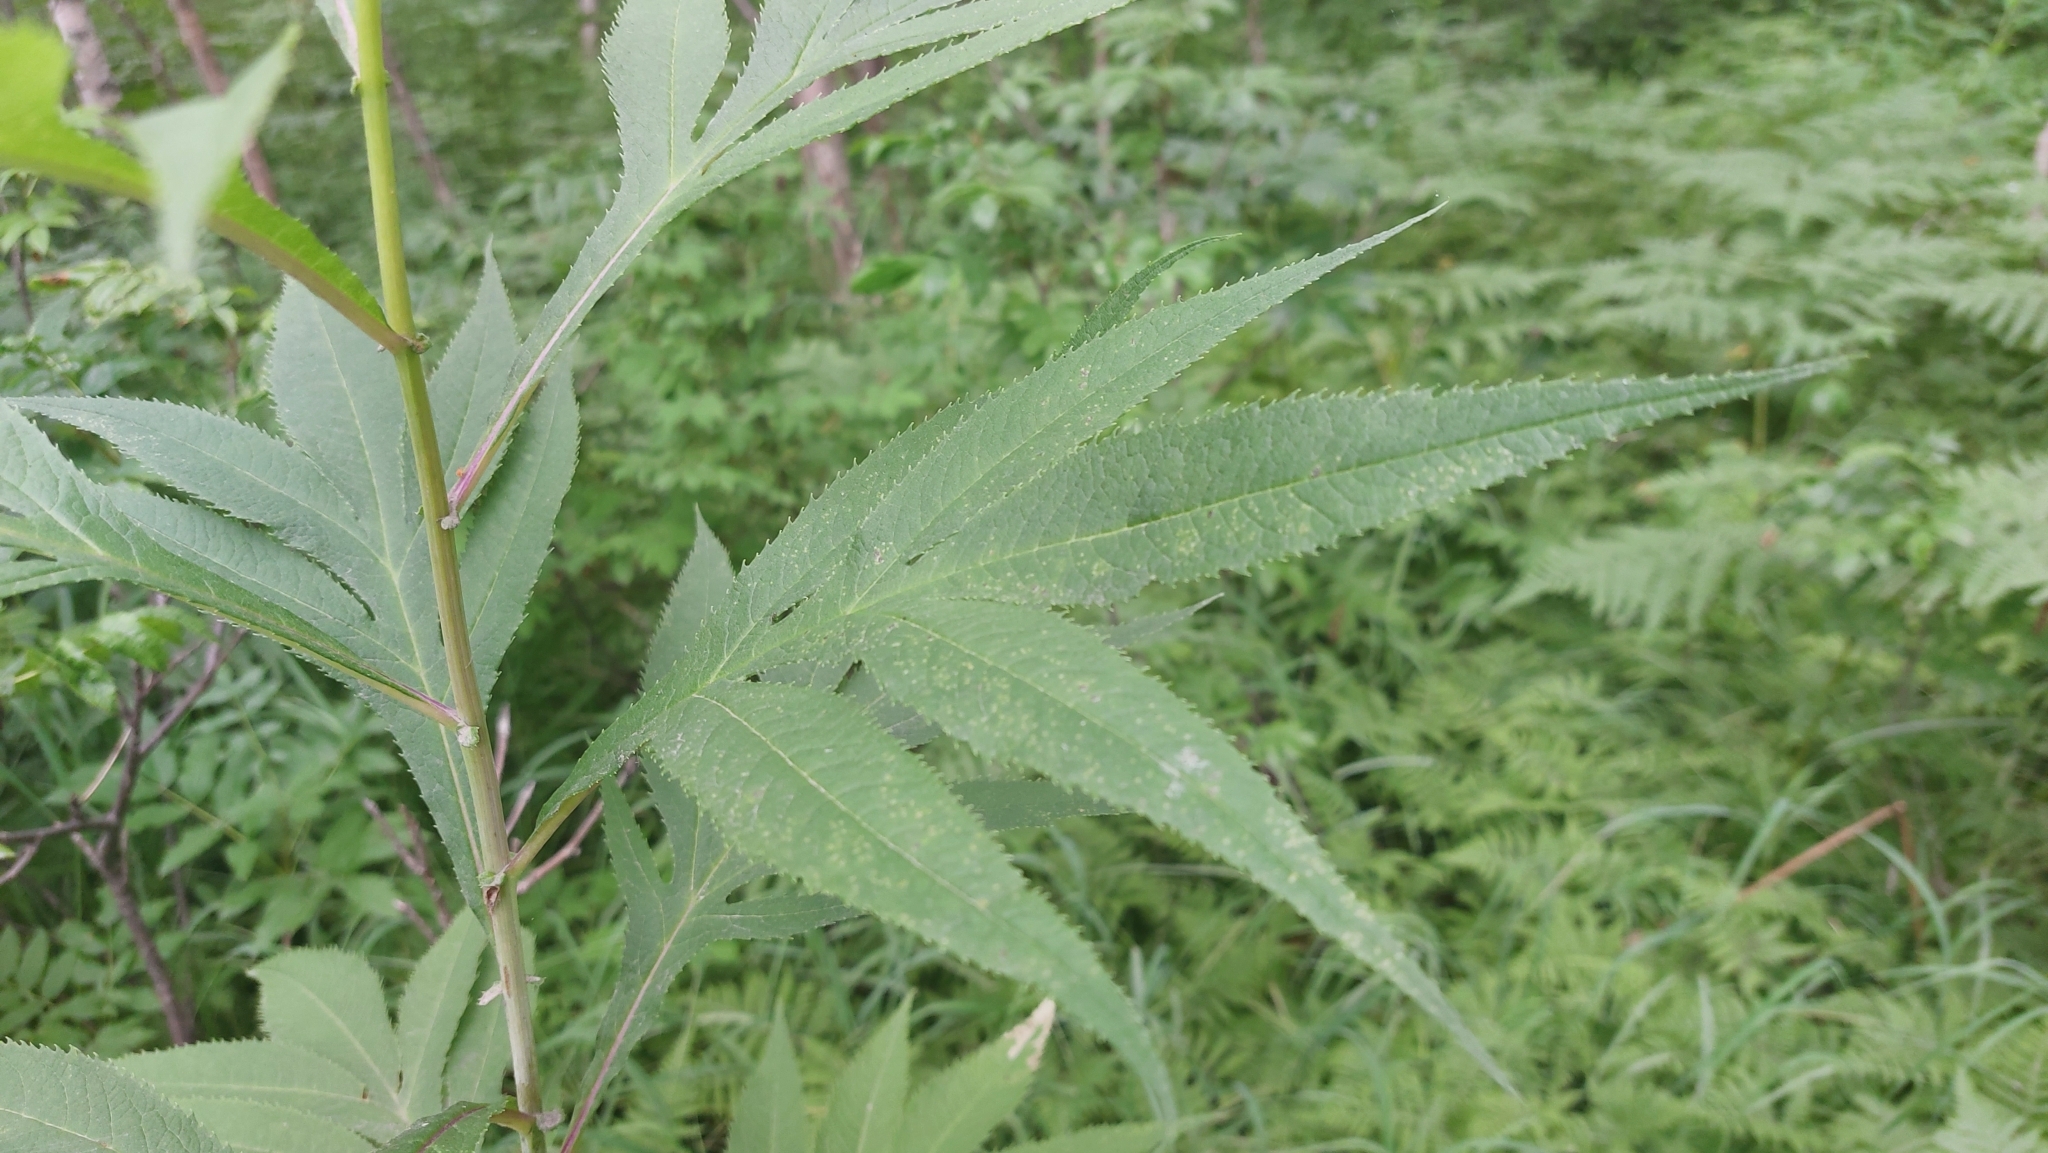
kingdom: Plantae
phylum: Tracheophyta
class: Magnoliopsida
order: Asterales
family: Asteraceae
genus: Jacobaea
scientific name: Jacobaea cannabifolia
